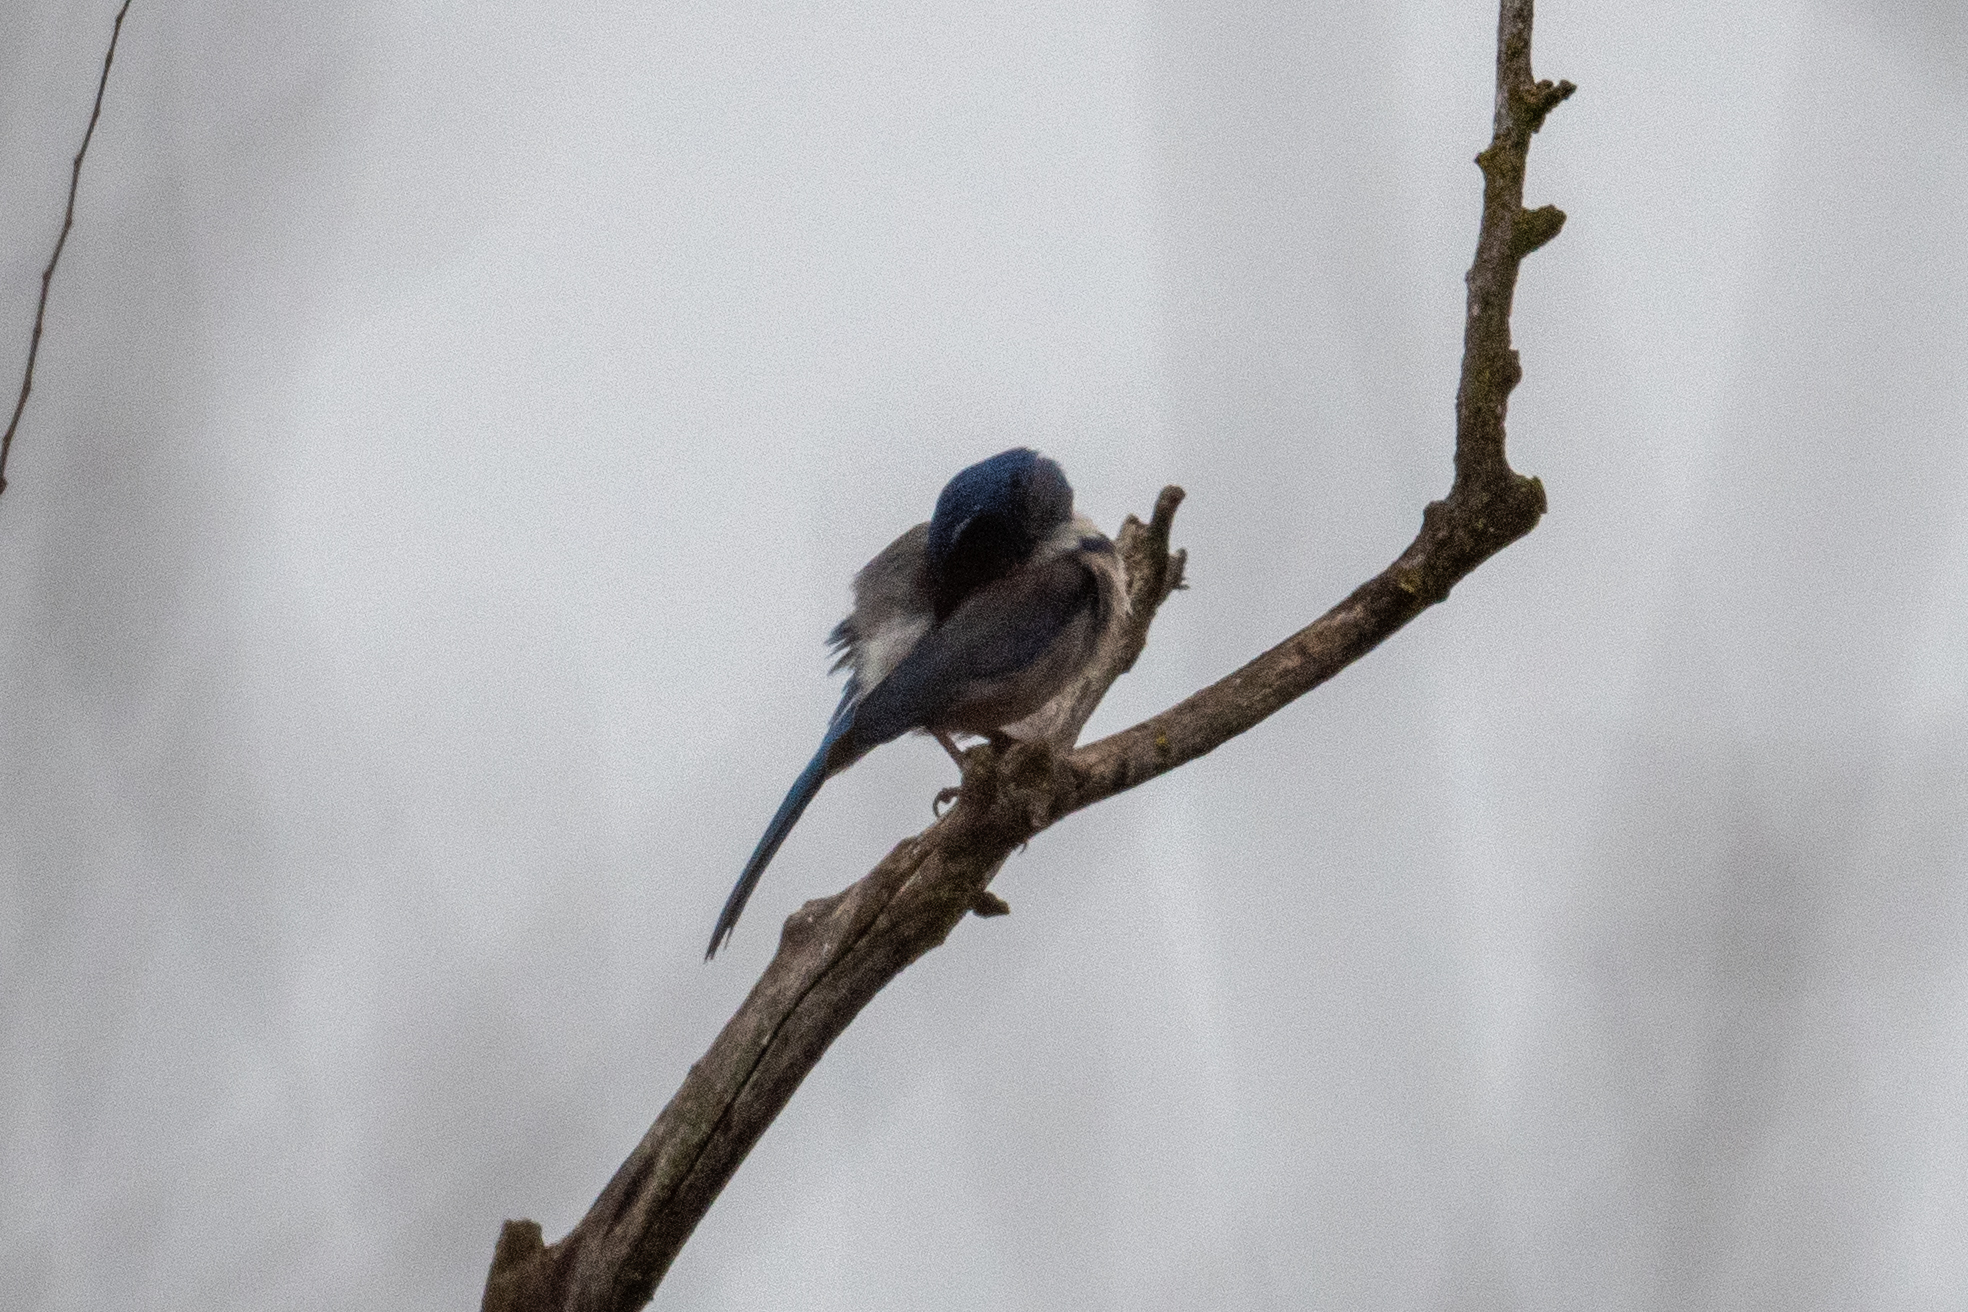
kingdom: Animalia
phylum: Chordata
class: Aves
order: Passeriformes
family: Corvidae
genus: Aphelocoma
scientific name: Aphelocoma californica
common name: California scrub-jay
